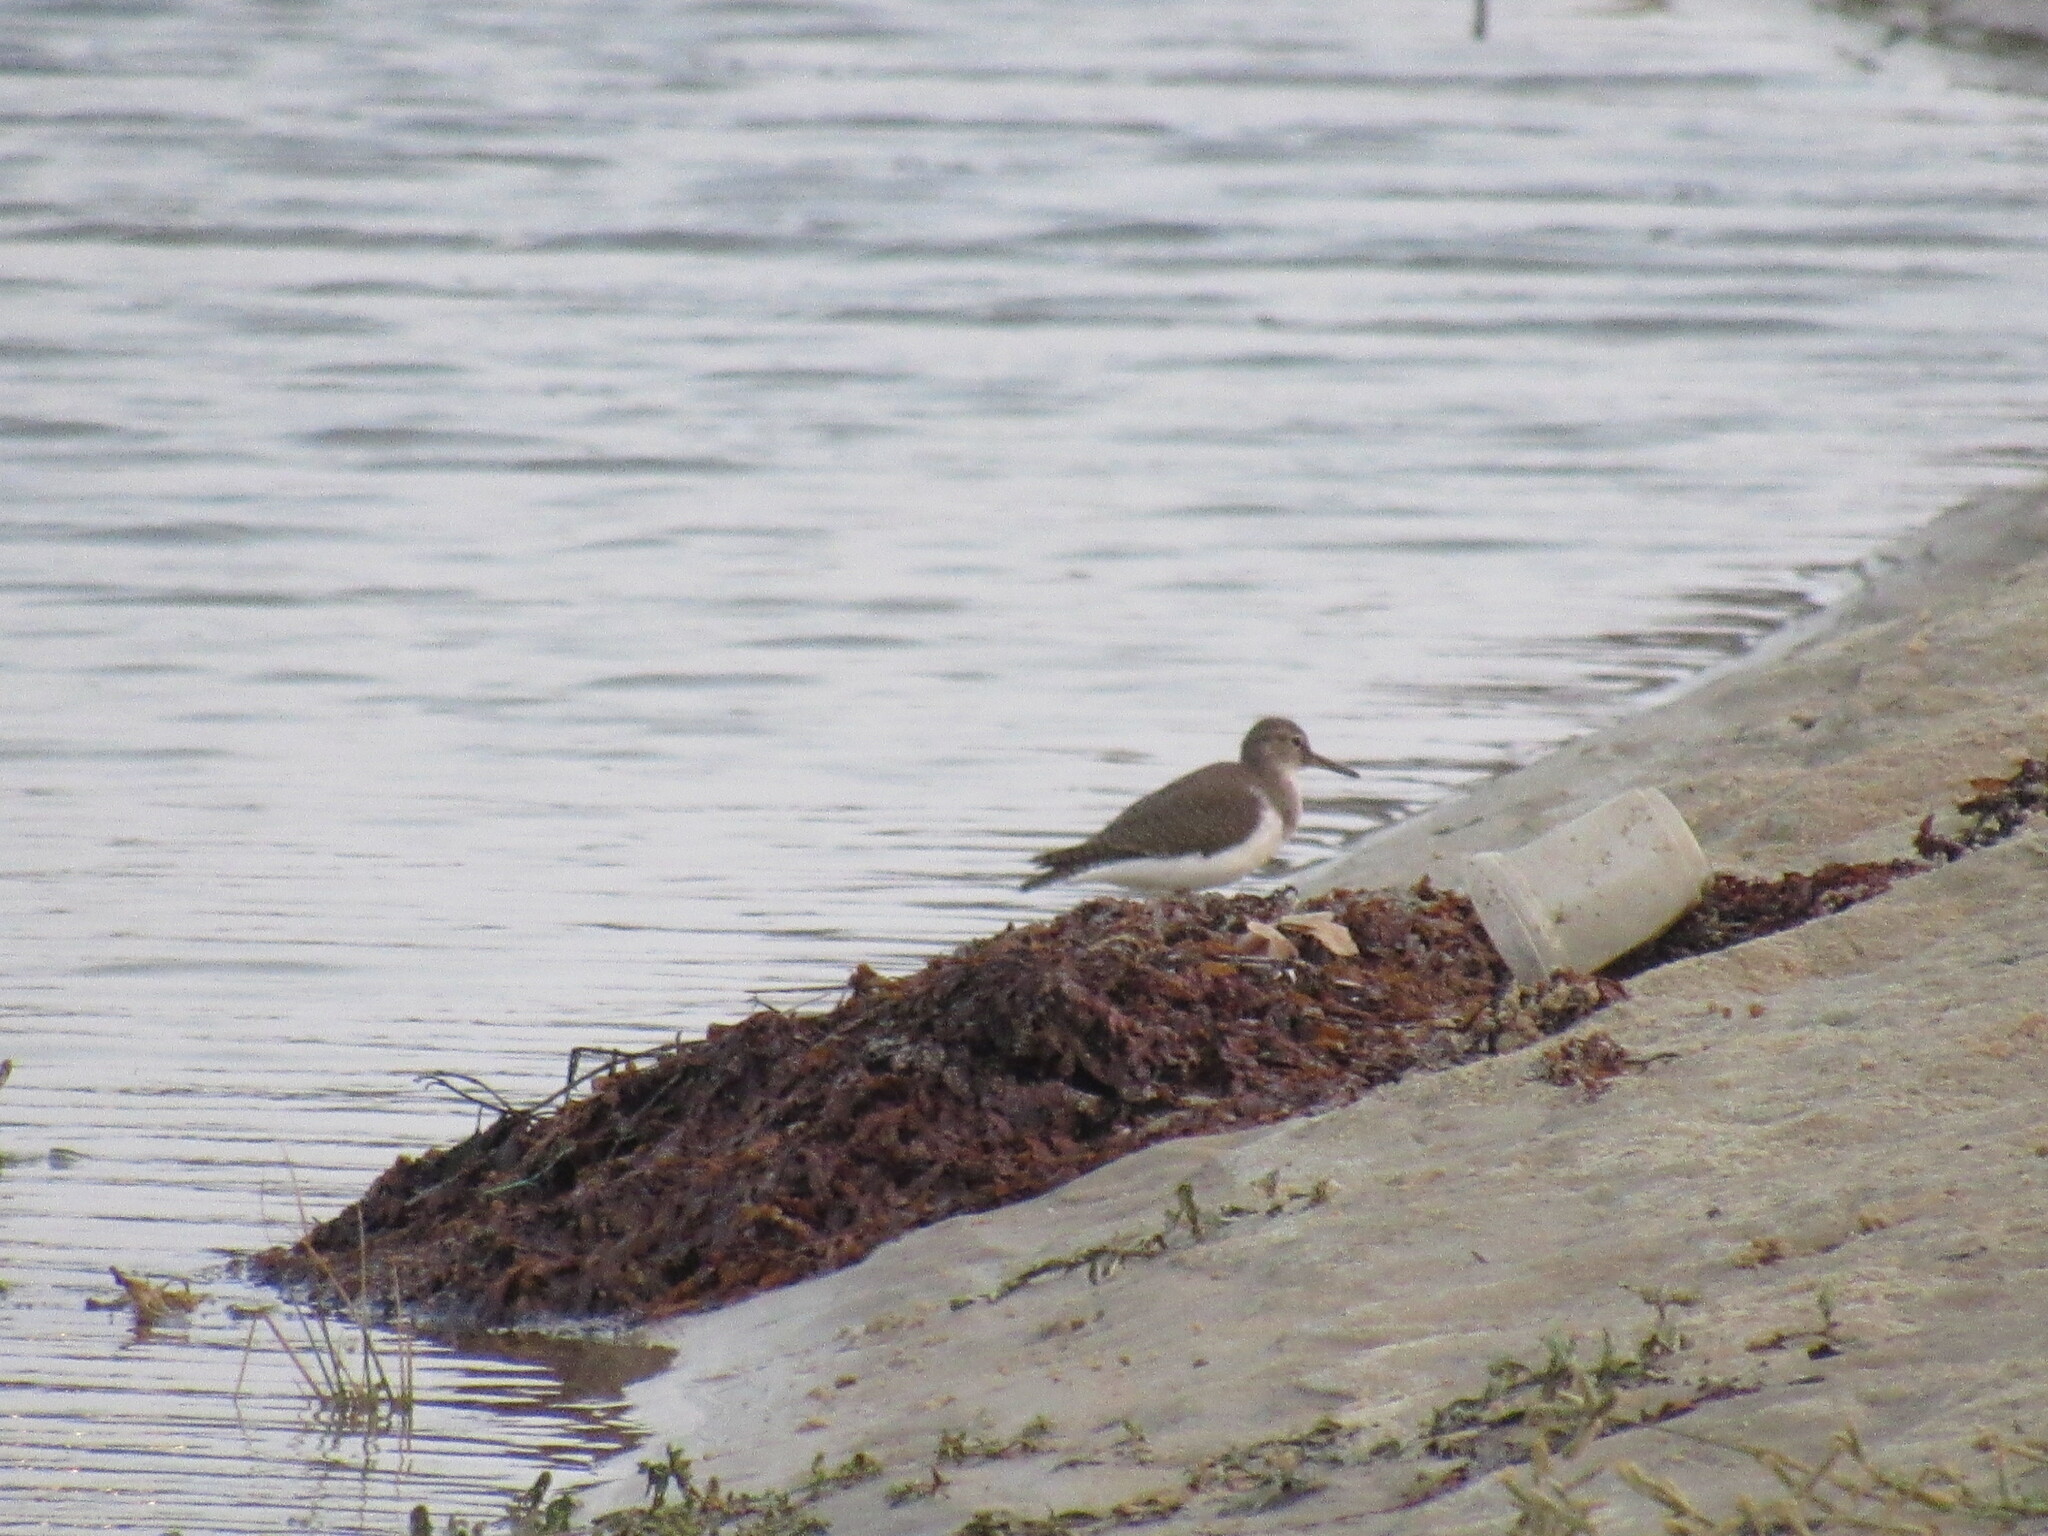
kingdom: Animalia
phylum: Chordata
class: Aves
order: Charadriiformes
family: Scolopacidae
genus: Actitis
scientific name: Actitis hypoleucos
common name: Common sandpiper
